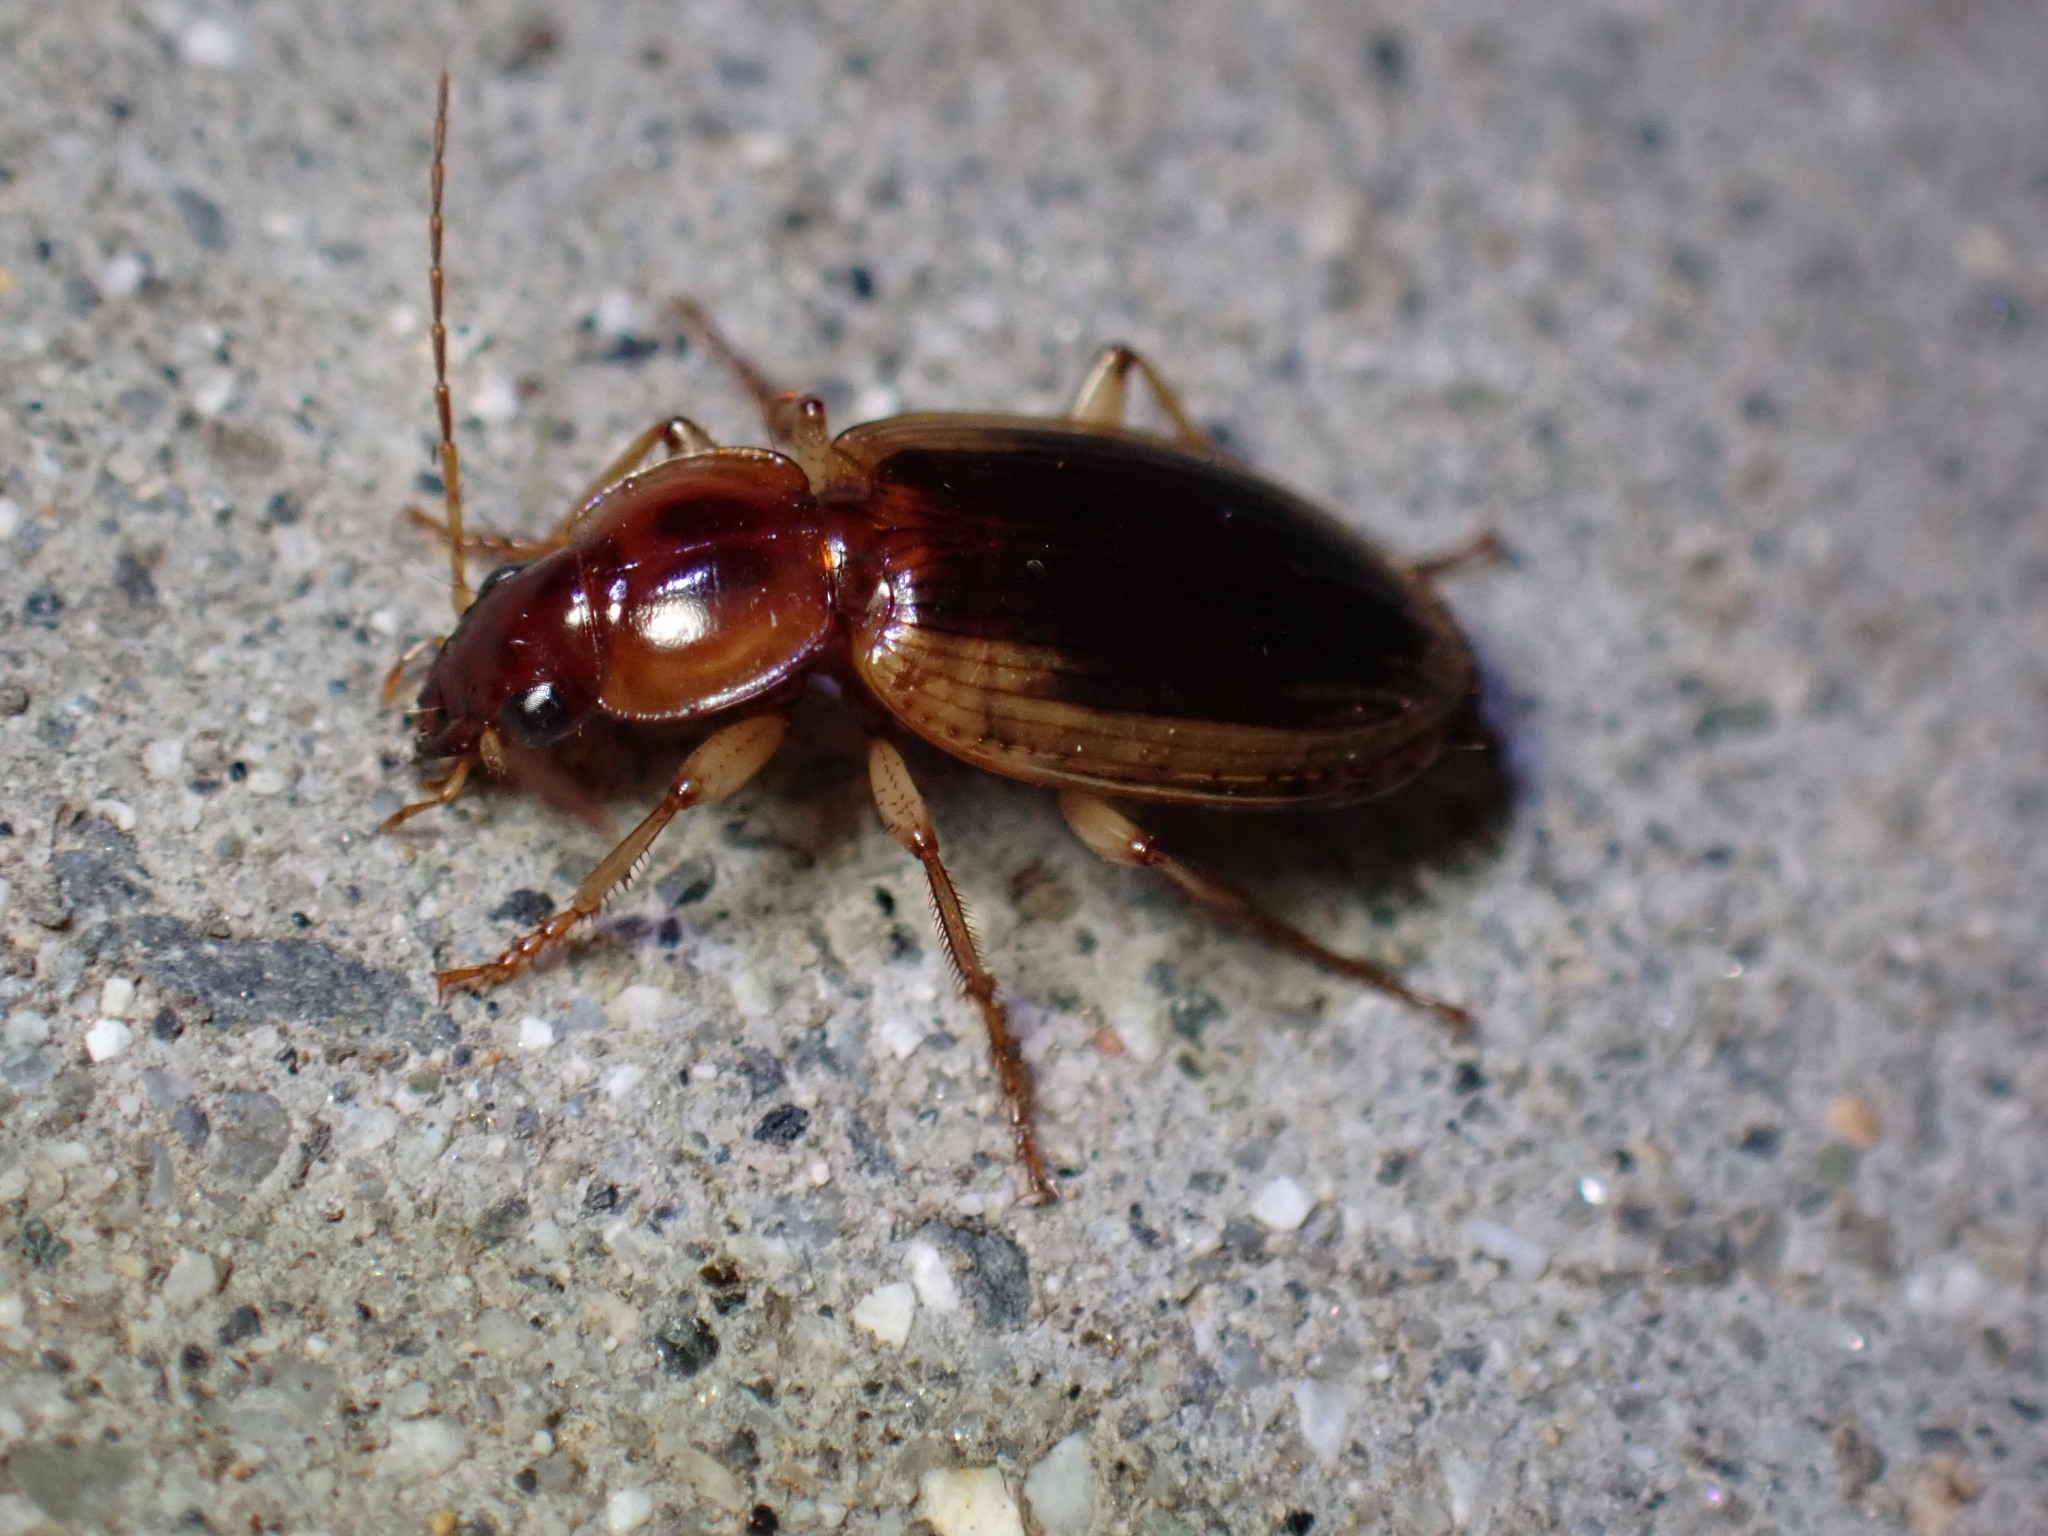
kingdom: Animalia
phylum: Arthropoda
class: Insecta
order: Coleoptera
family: Carabidae
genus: Tanystoma
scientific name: Tanystoma maculicolle
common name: Tule beetle
